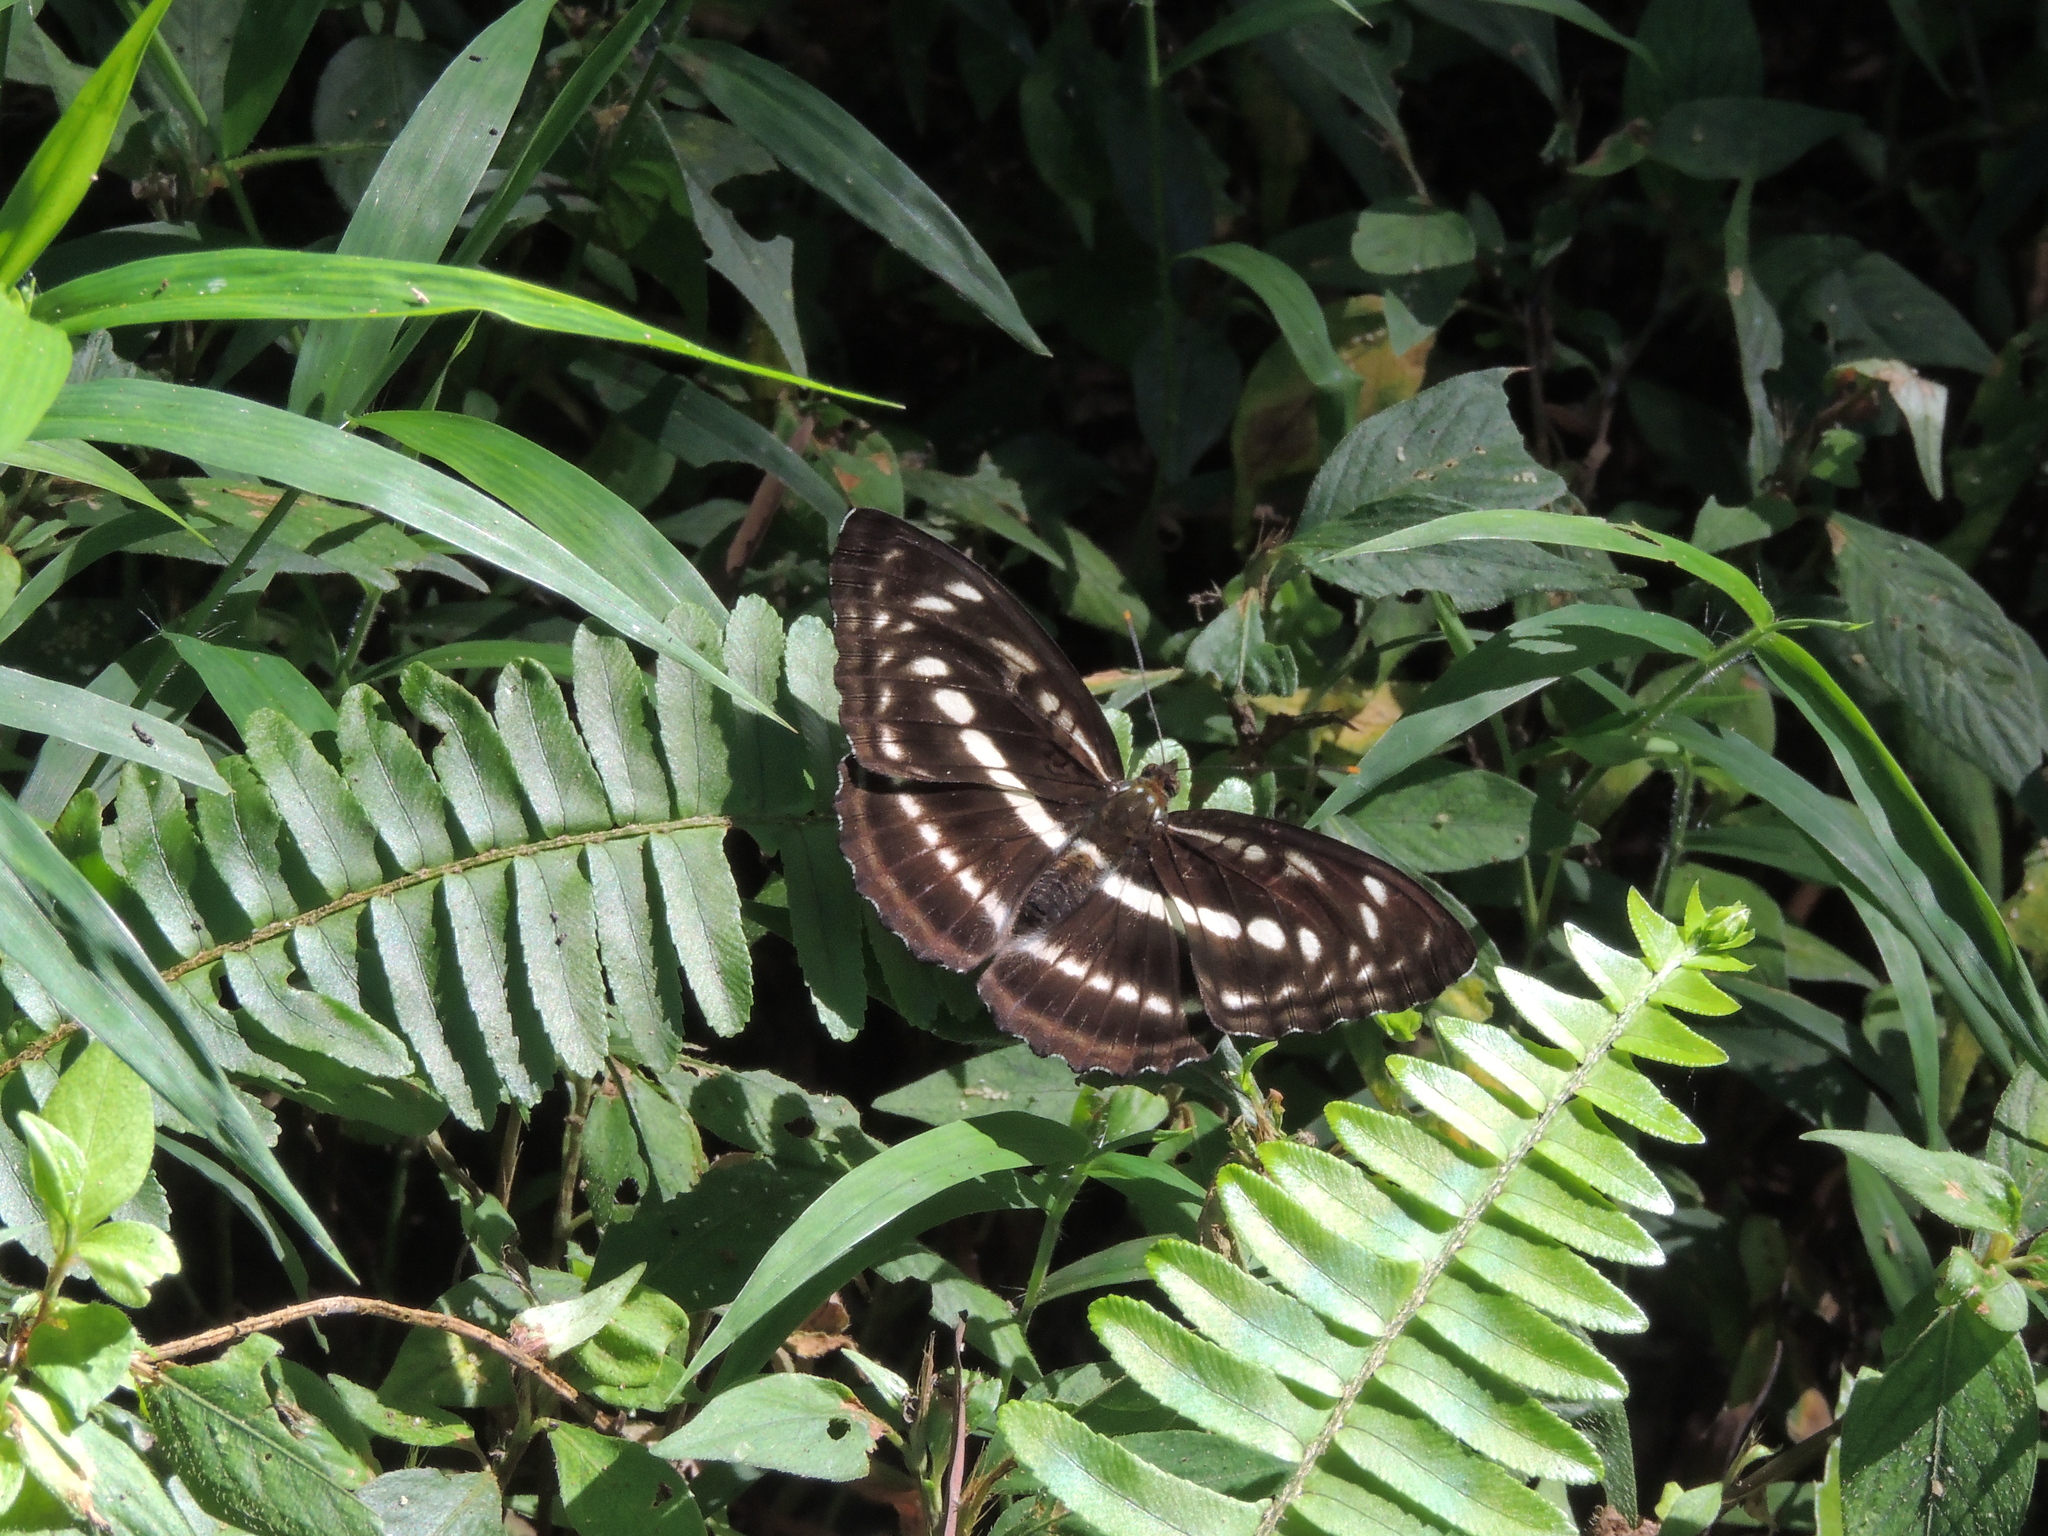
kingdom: Animalia
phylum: Arthropoda
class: Insecta
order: Lepidoptera
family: Nymphalidae
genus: Parathyma
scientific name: Parathyma selenophora
